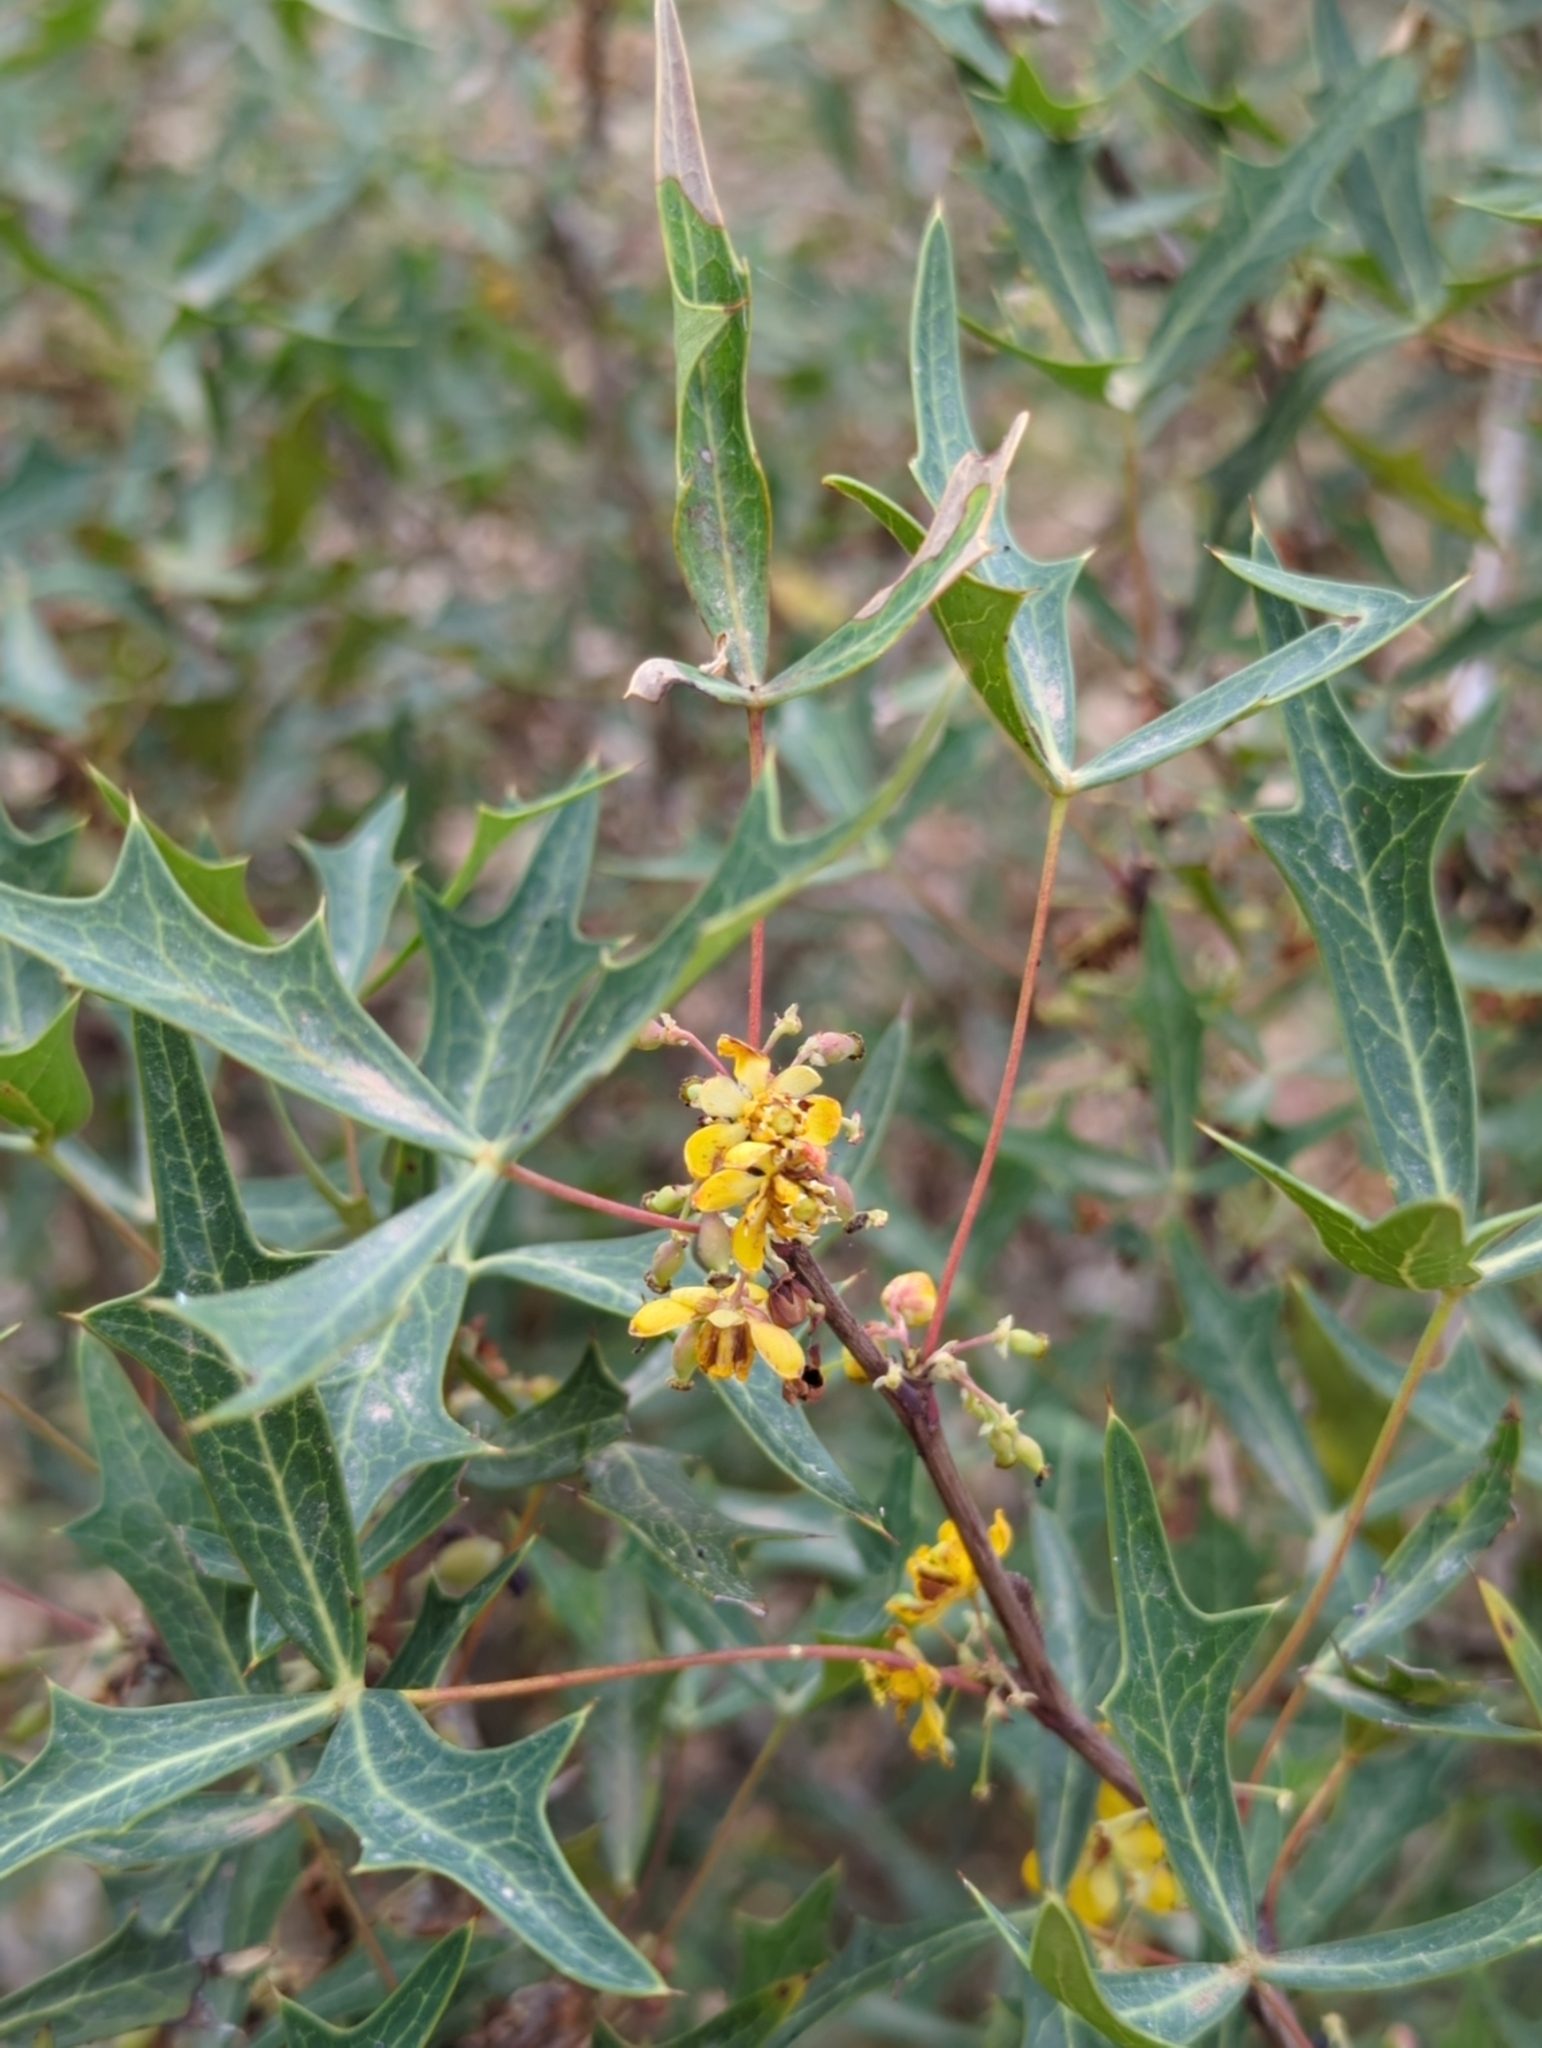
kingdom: Plantae
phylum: Tracheophyta
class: Magnoliopsida
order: Ranunculales
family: Berberidaceae
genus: Alloberberis
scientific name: Alloberberis trifoliolata
